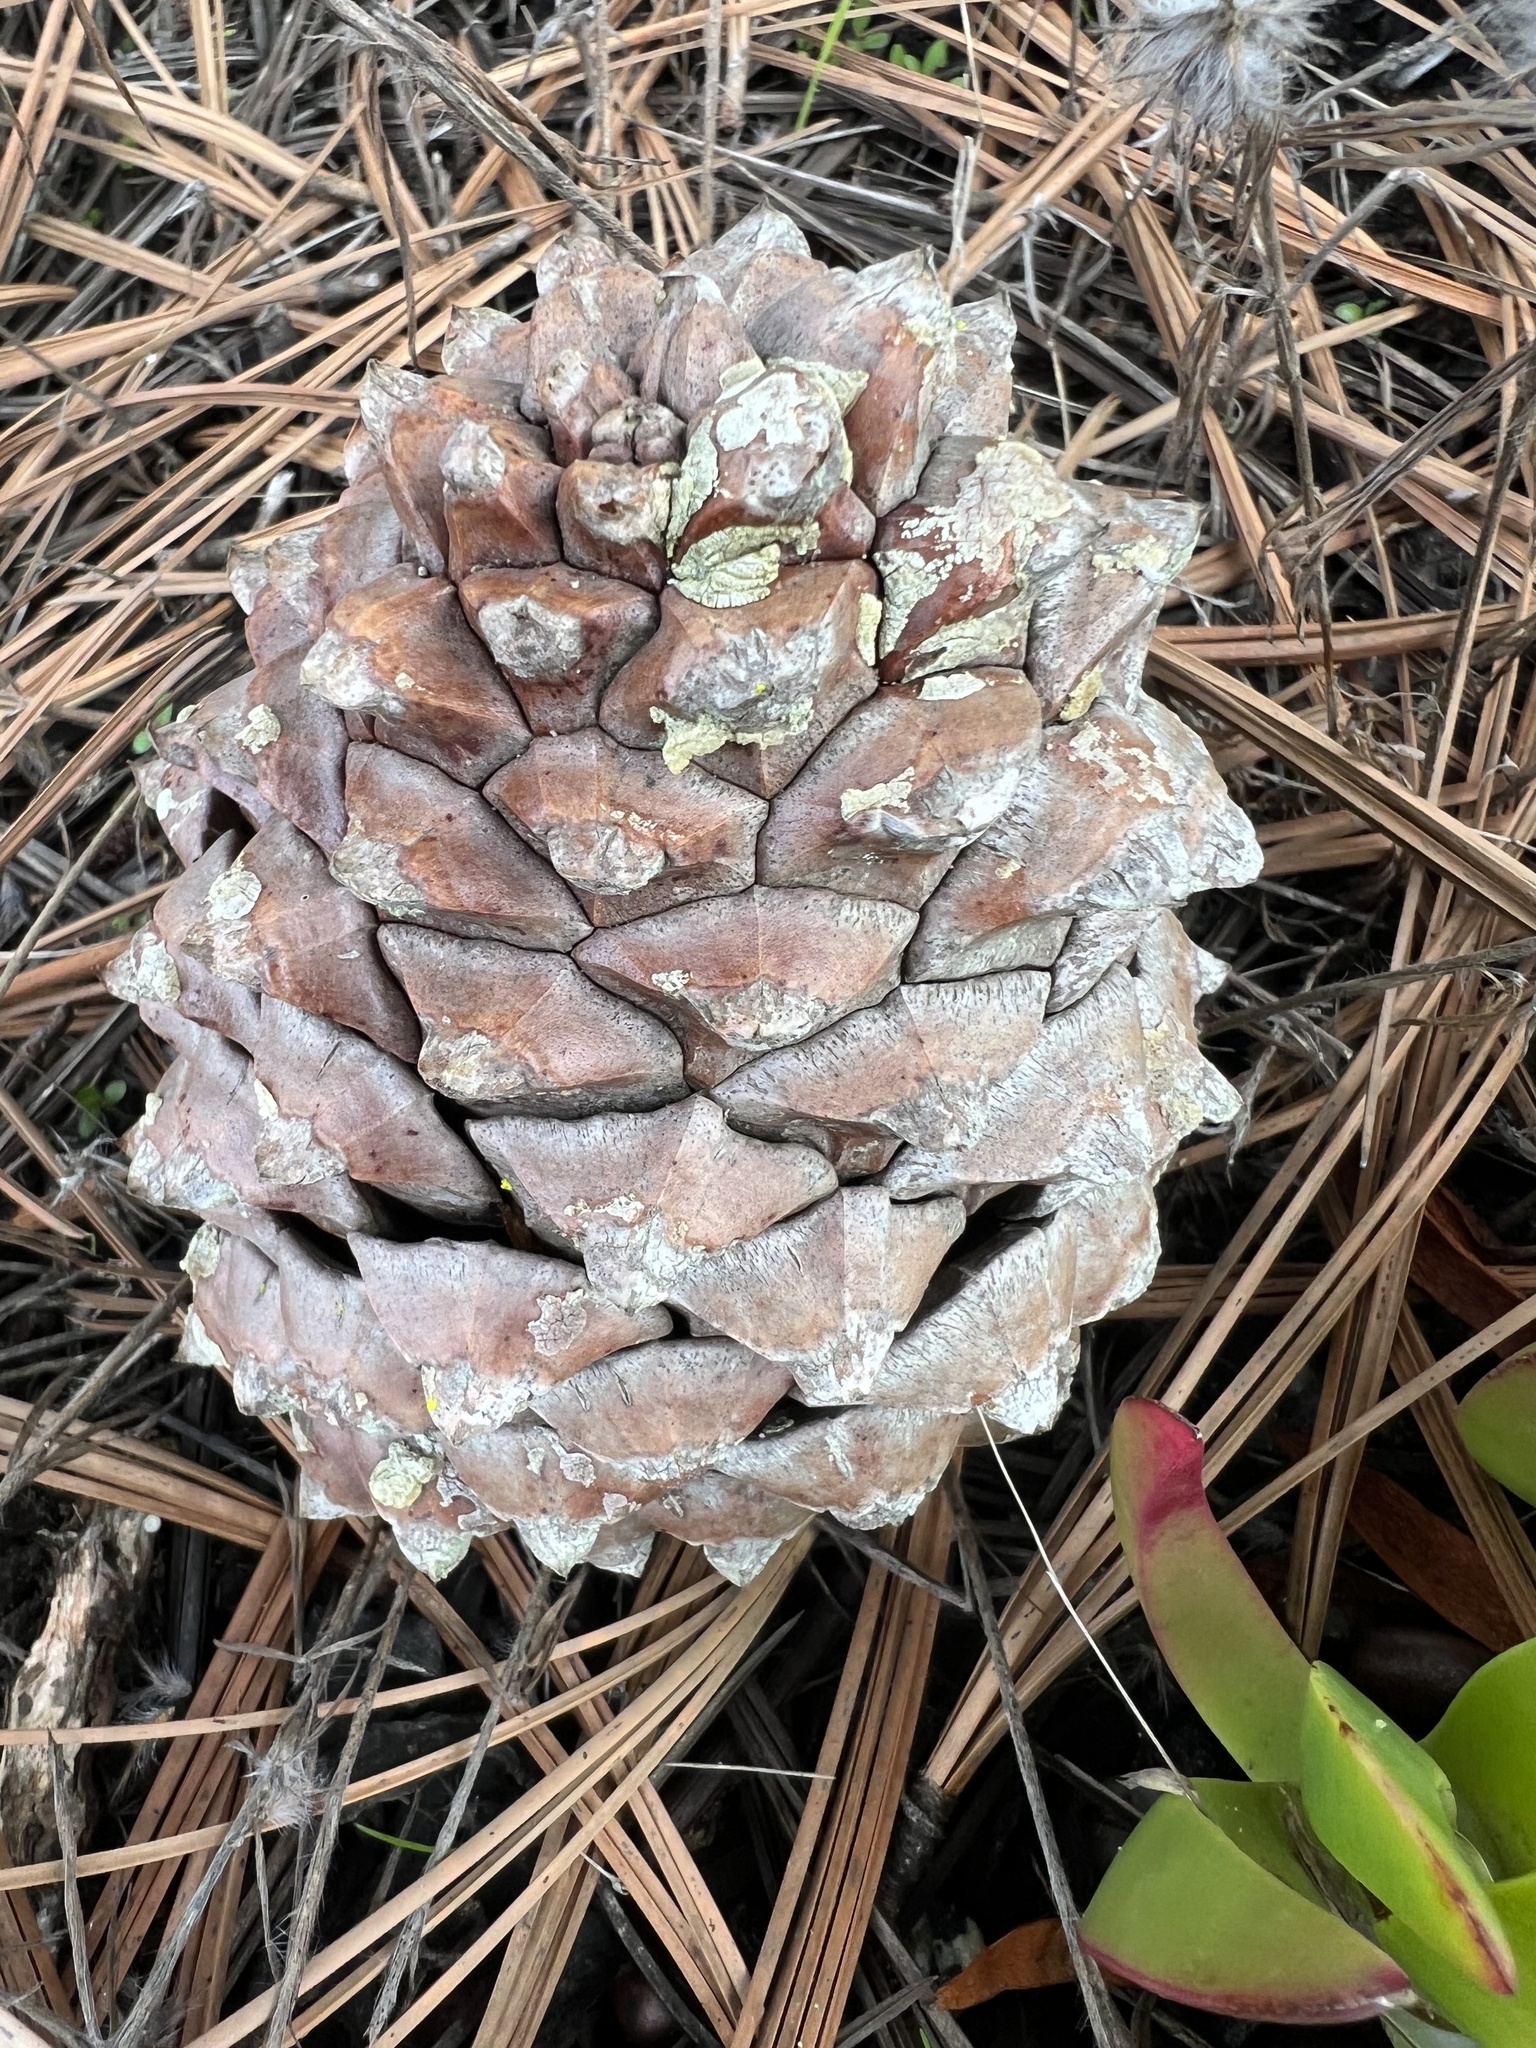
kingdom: Plantae
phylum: Tracheophyta
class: Pinopsida
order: Pinales
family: Pinaceae
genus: Pinus
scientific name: Pinus torreyana
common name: Torrey pine
